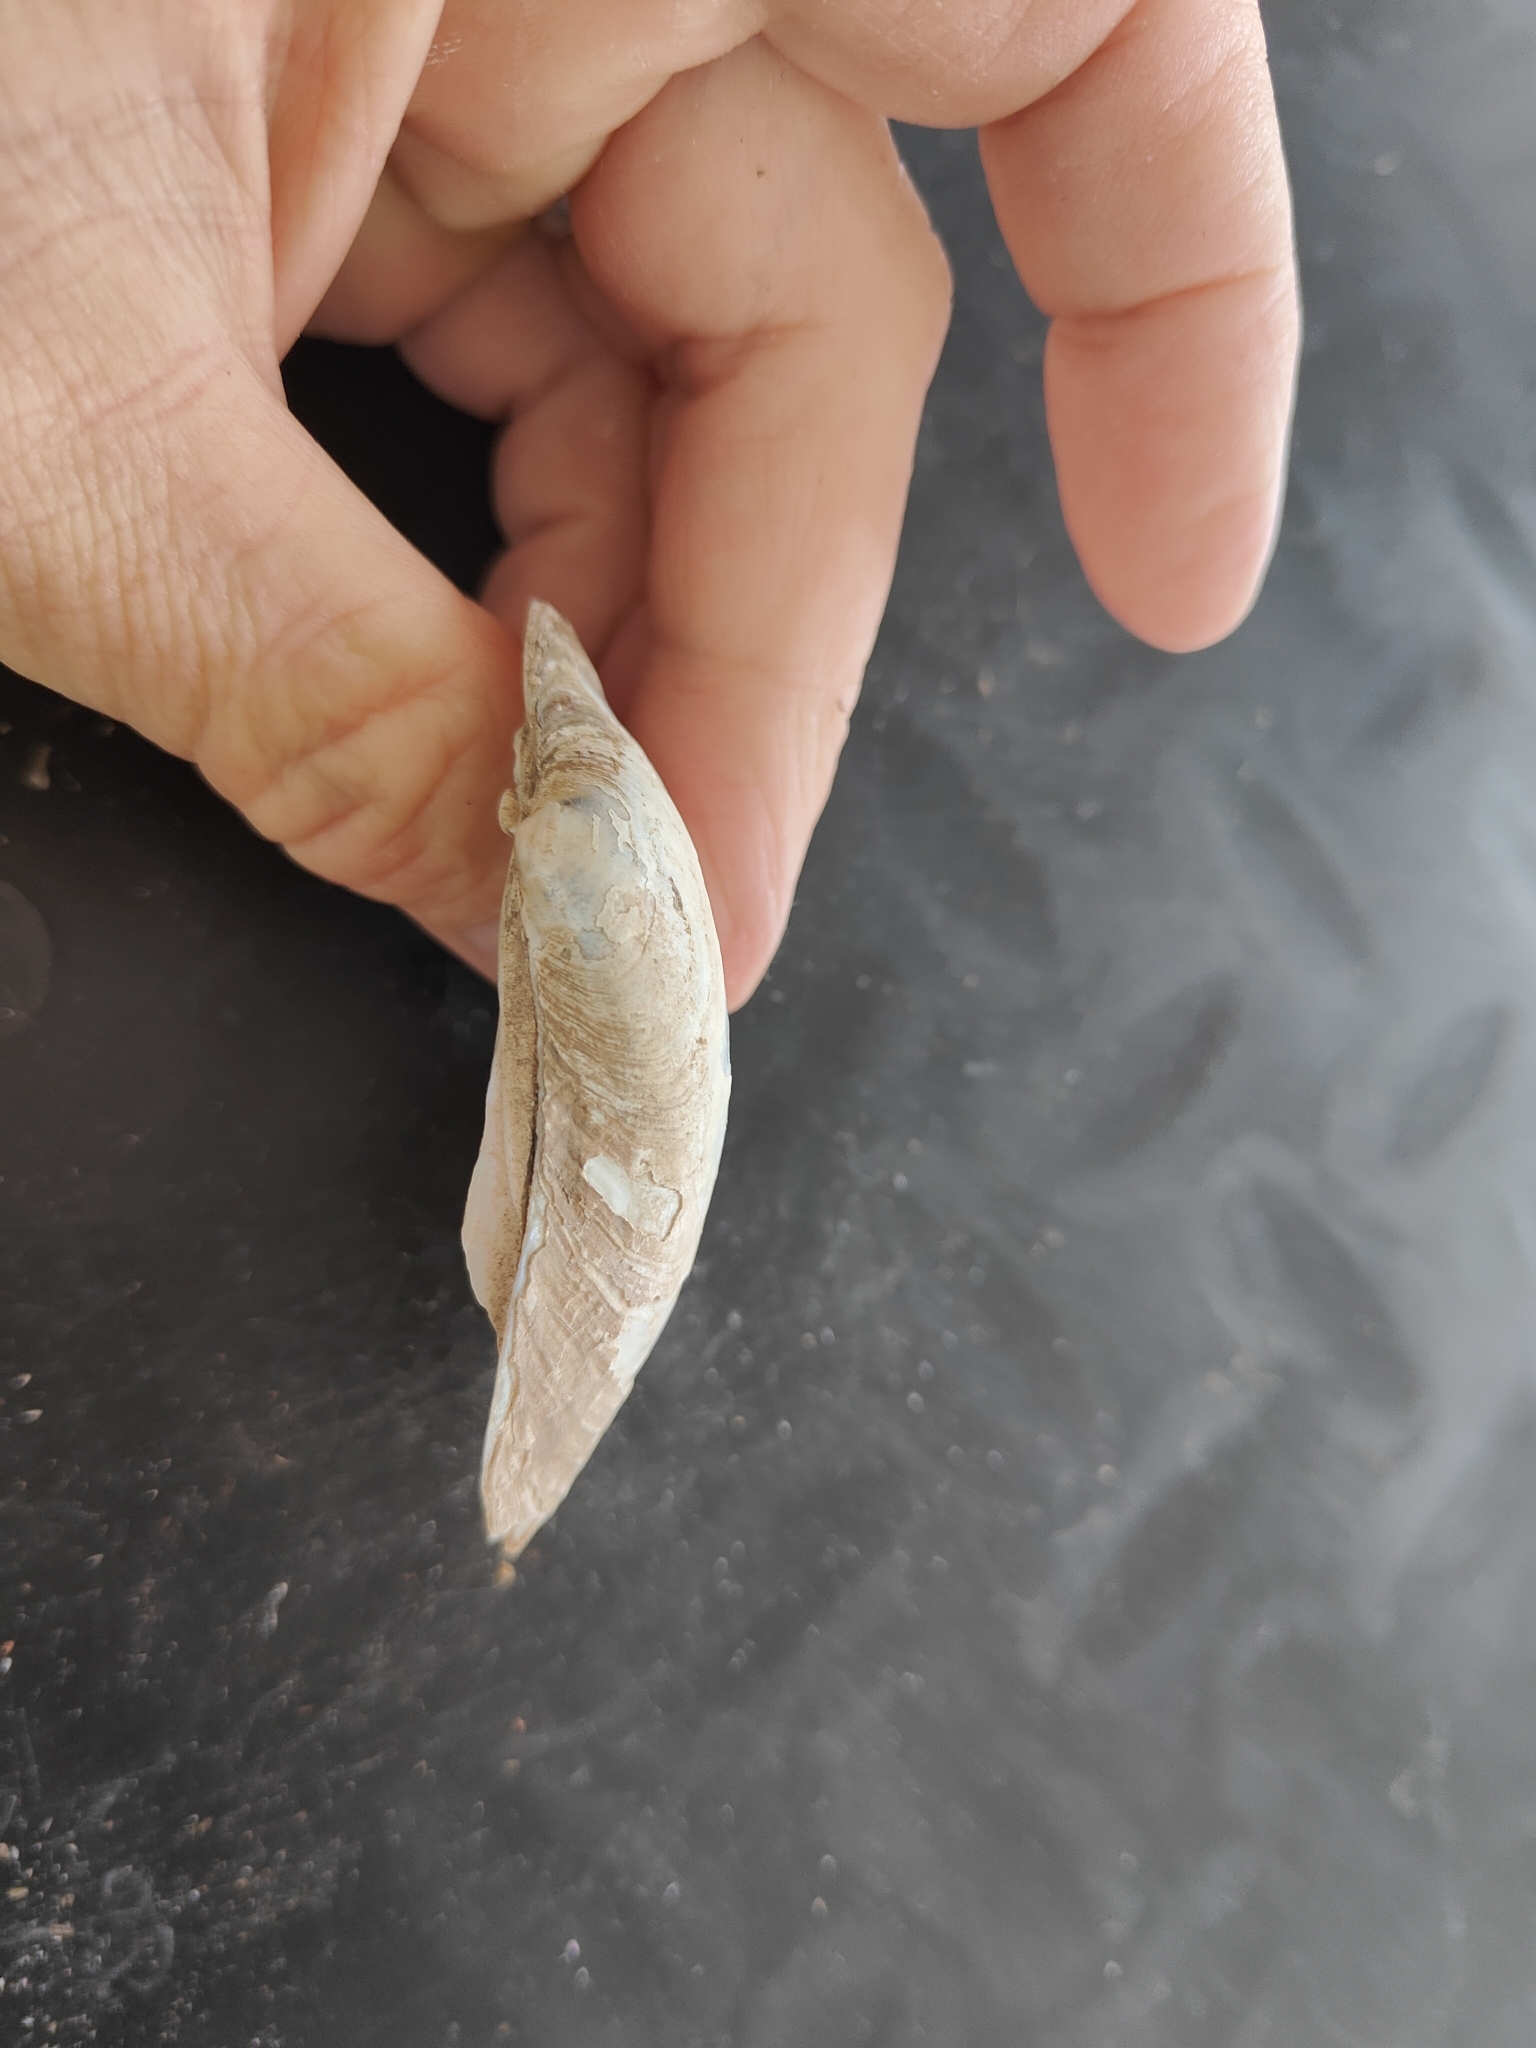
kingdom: Animalia
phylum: Mollusca
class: Bivalvia
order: Unionida
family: Unionidae
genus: Lampsilis
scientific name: Lampsilis cardium
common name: Plain pocketbook
